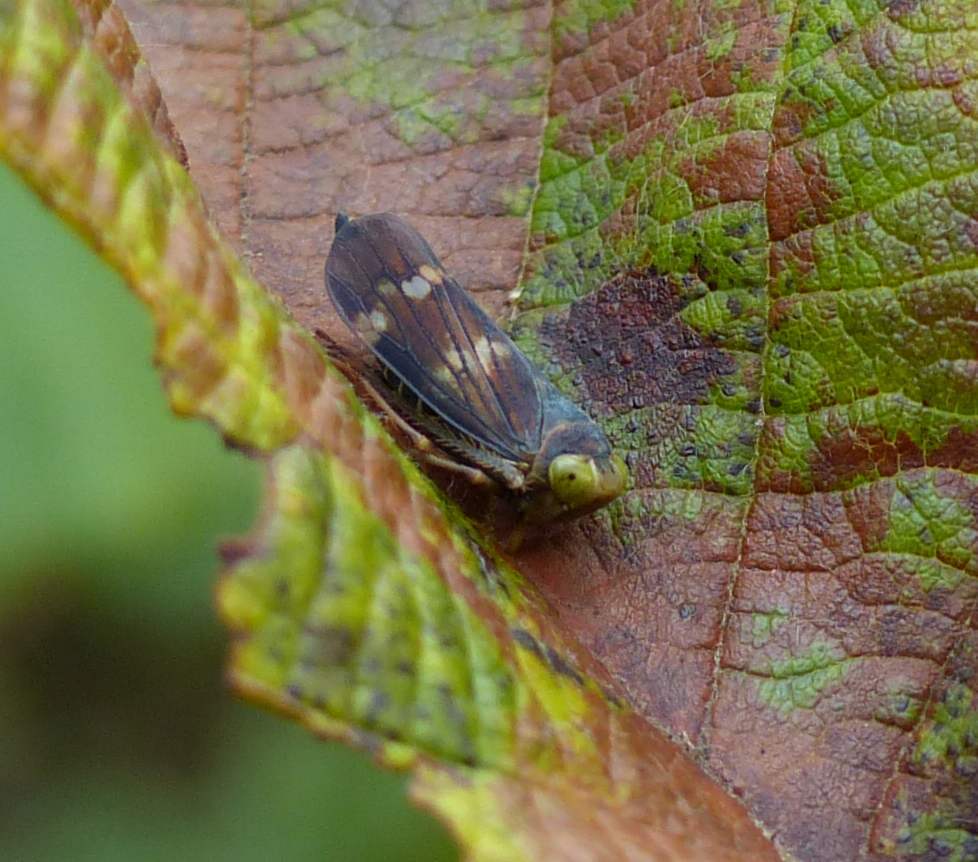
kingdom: Animalia
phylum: Arthropoda
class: Insecta
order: Hemiptera
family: Cicadellidae
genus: Jikradia
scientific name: Jikradia olitoria
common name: Coppery leafhopper
